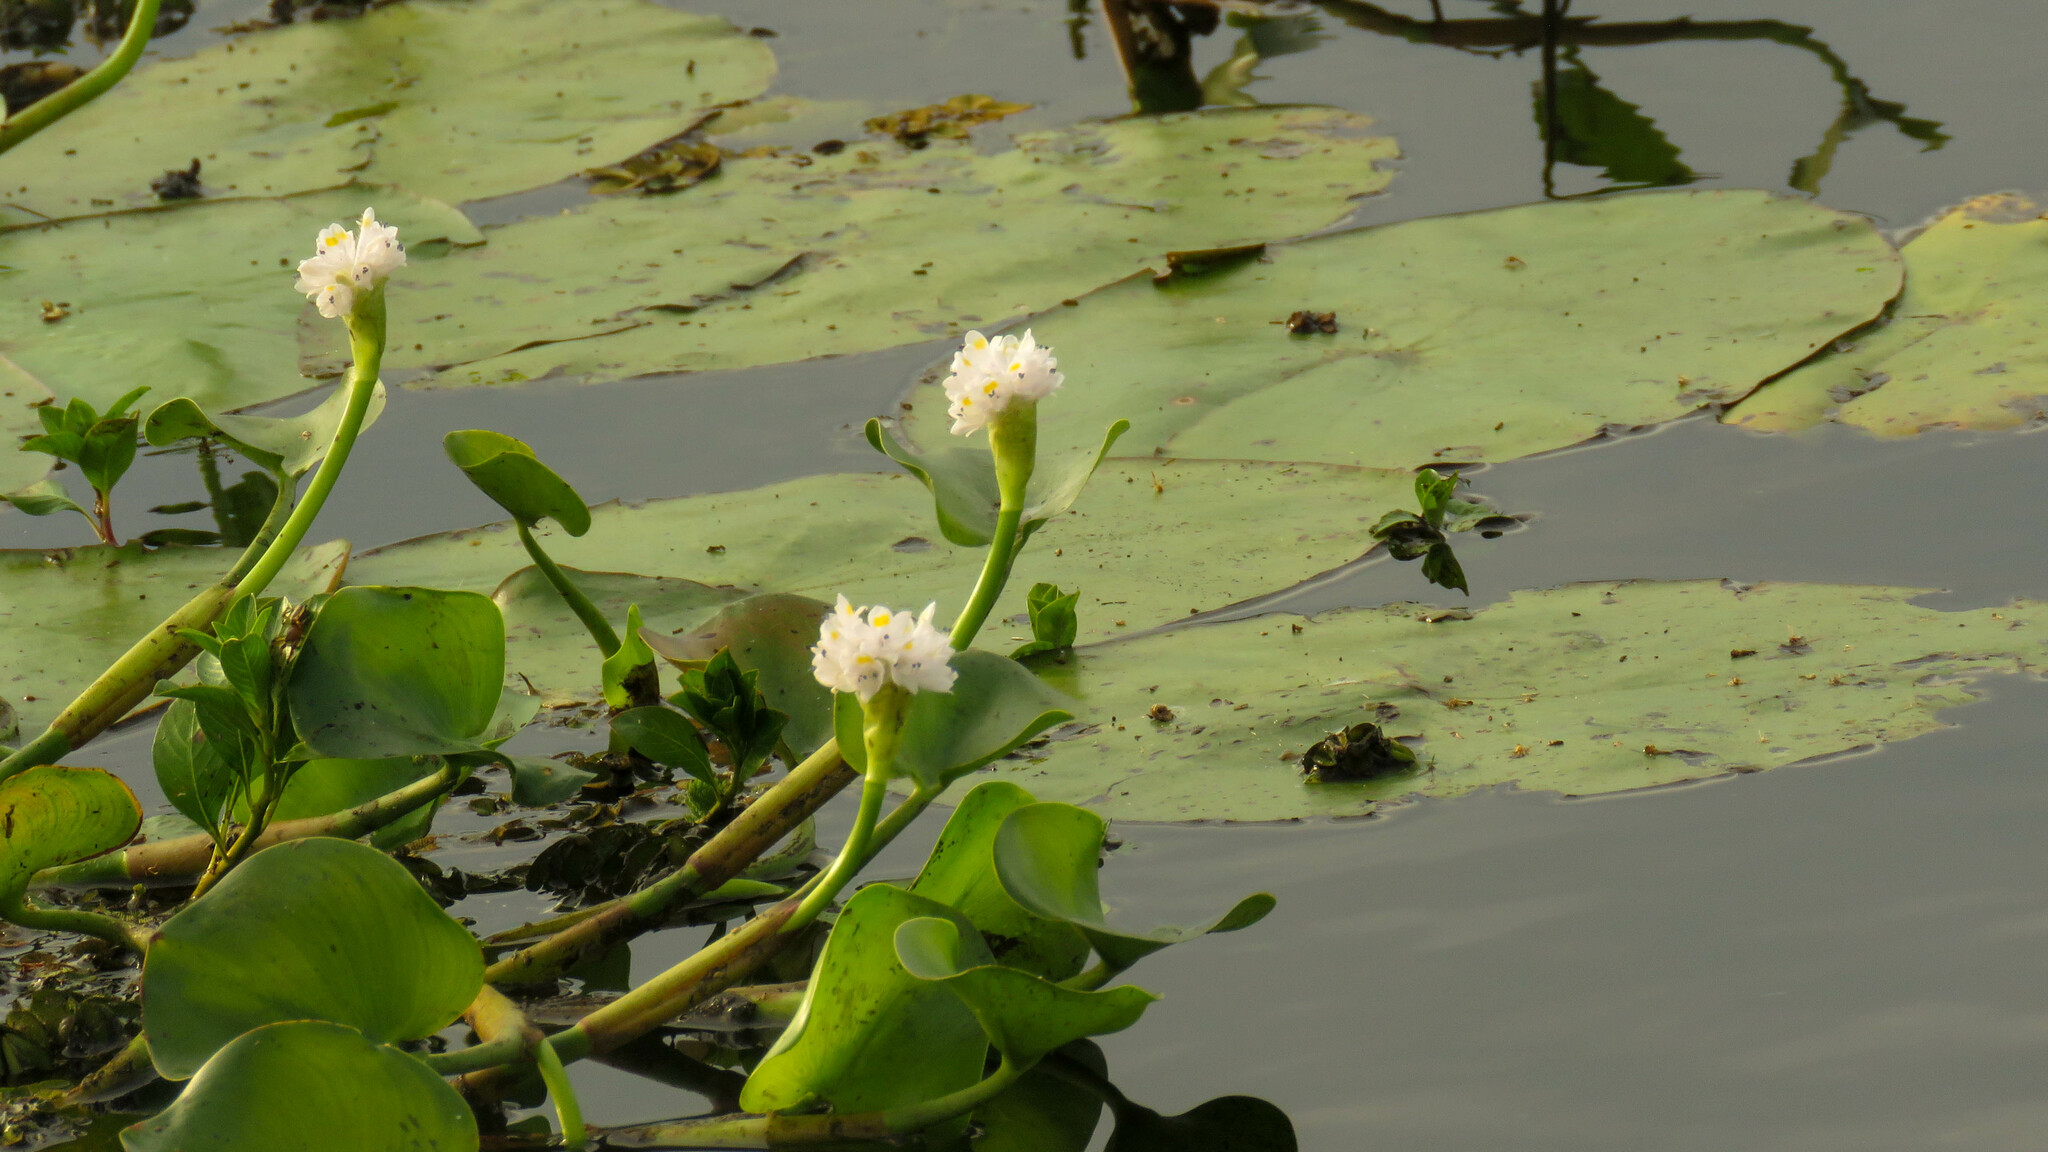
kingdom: Plantae
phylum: Tracheophyta
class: Liliopsida
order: Commelinales
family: Pontederiaceae
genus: Pontederia
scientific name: Pontederia rotundifolia
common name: Tropical pickerel-weed
